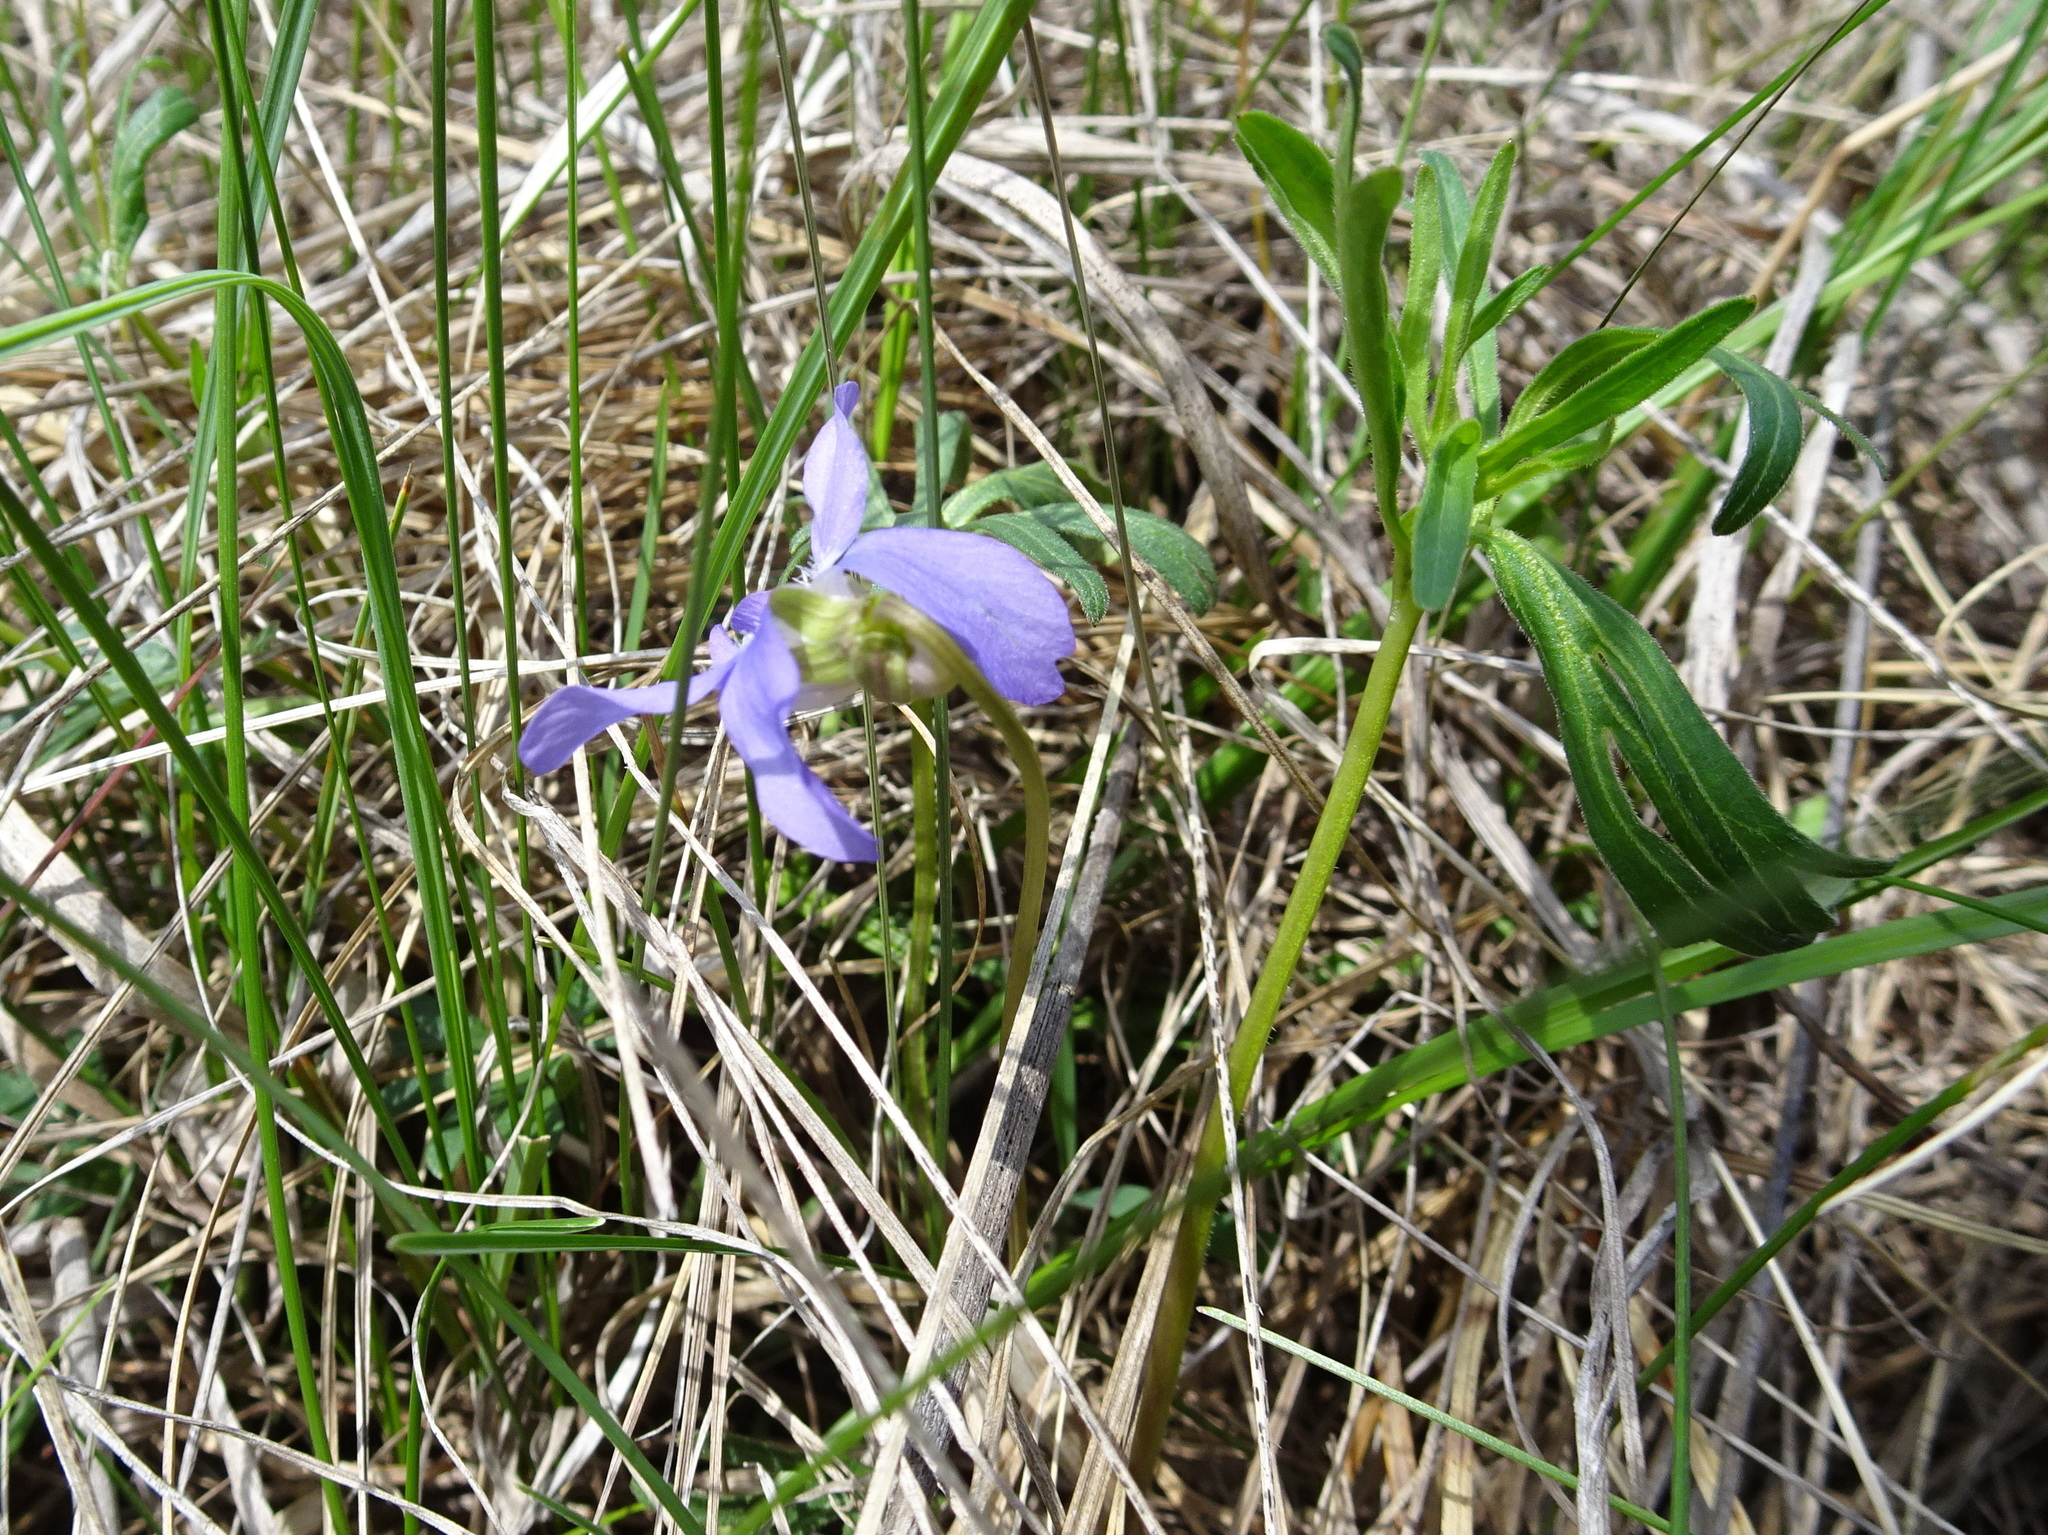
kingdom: Plantae
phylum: Tracheophyta
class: Magnoliopsida
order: Malpighiales
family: Violaceae
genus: Viola
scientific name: Viola pedatifida
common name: Prairie violet
